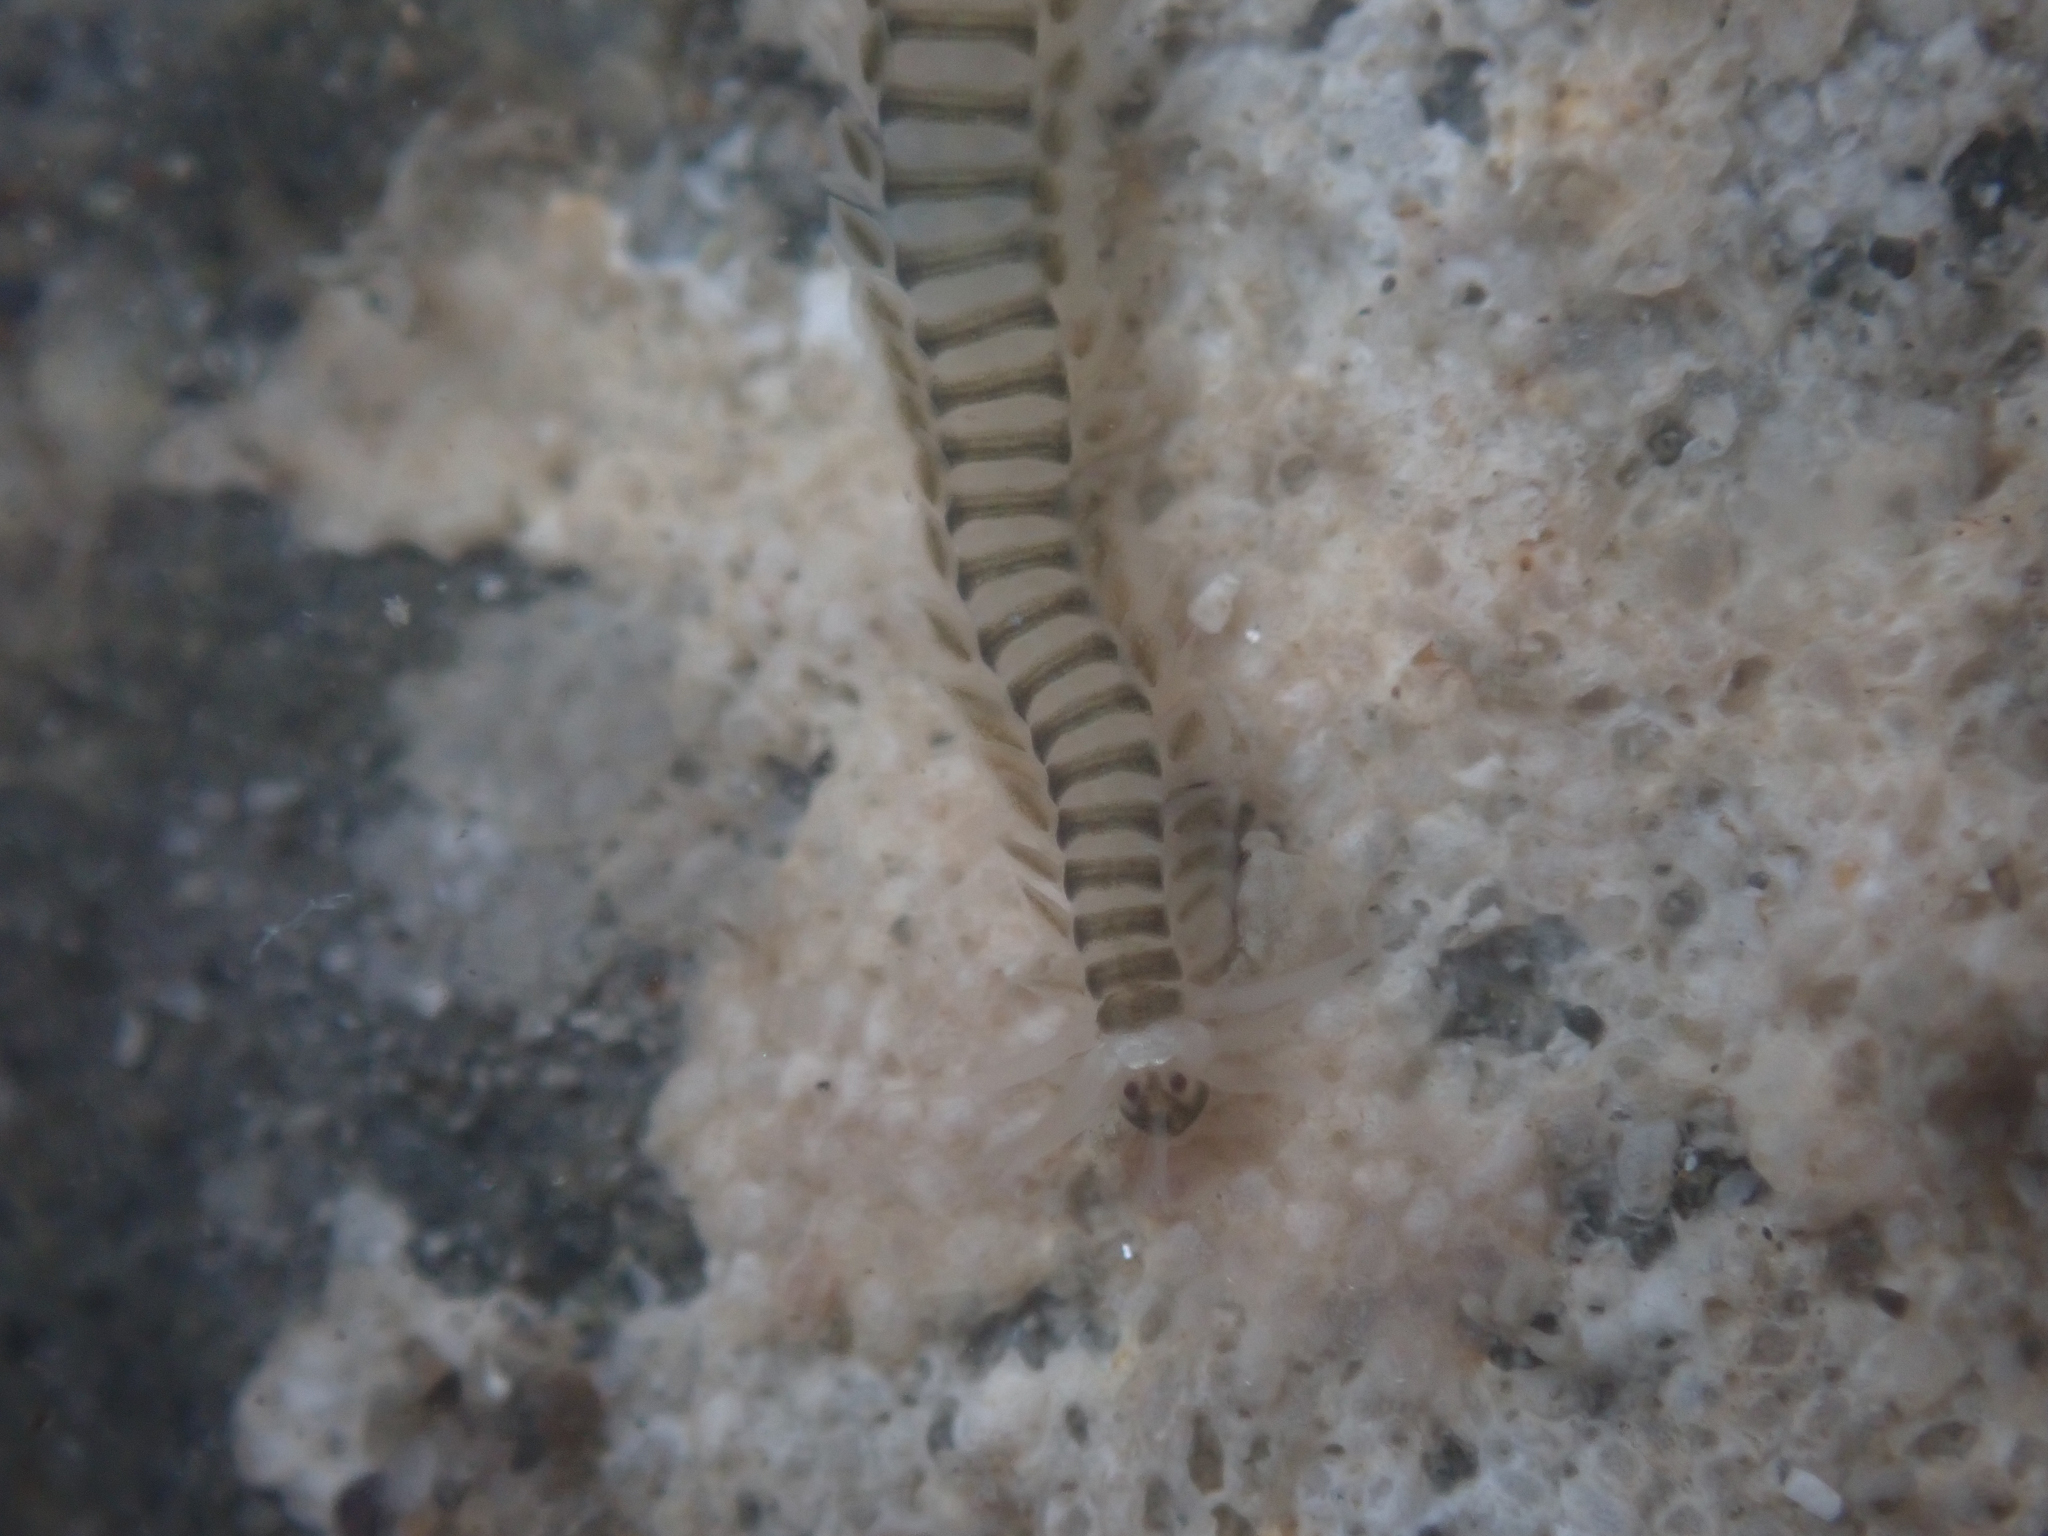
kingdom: Animalia
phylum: Annelida
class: Polychaeta
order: Phyllodocida
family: Phyllodocidae
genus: Eumida
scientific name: Eumida longicornuta
